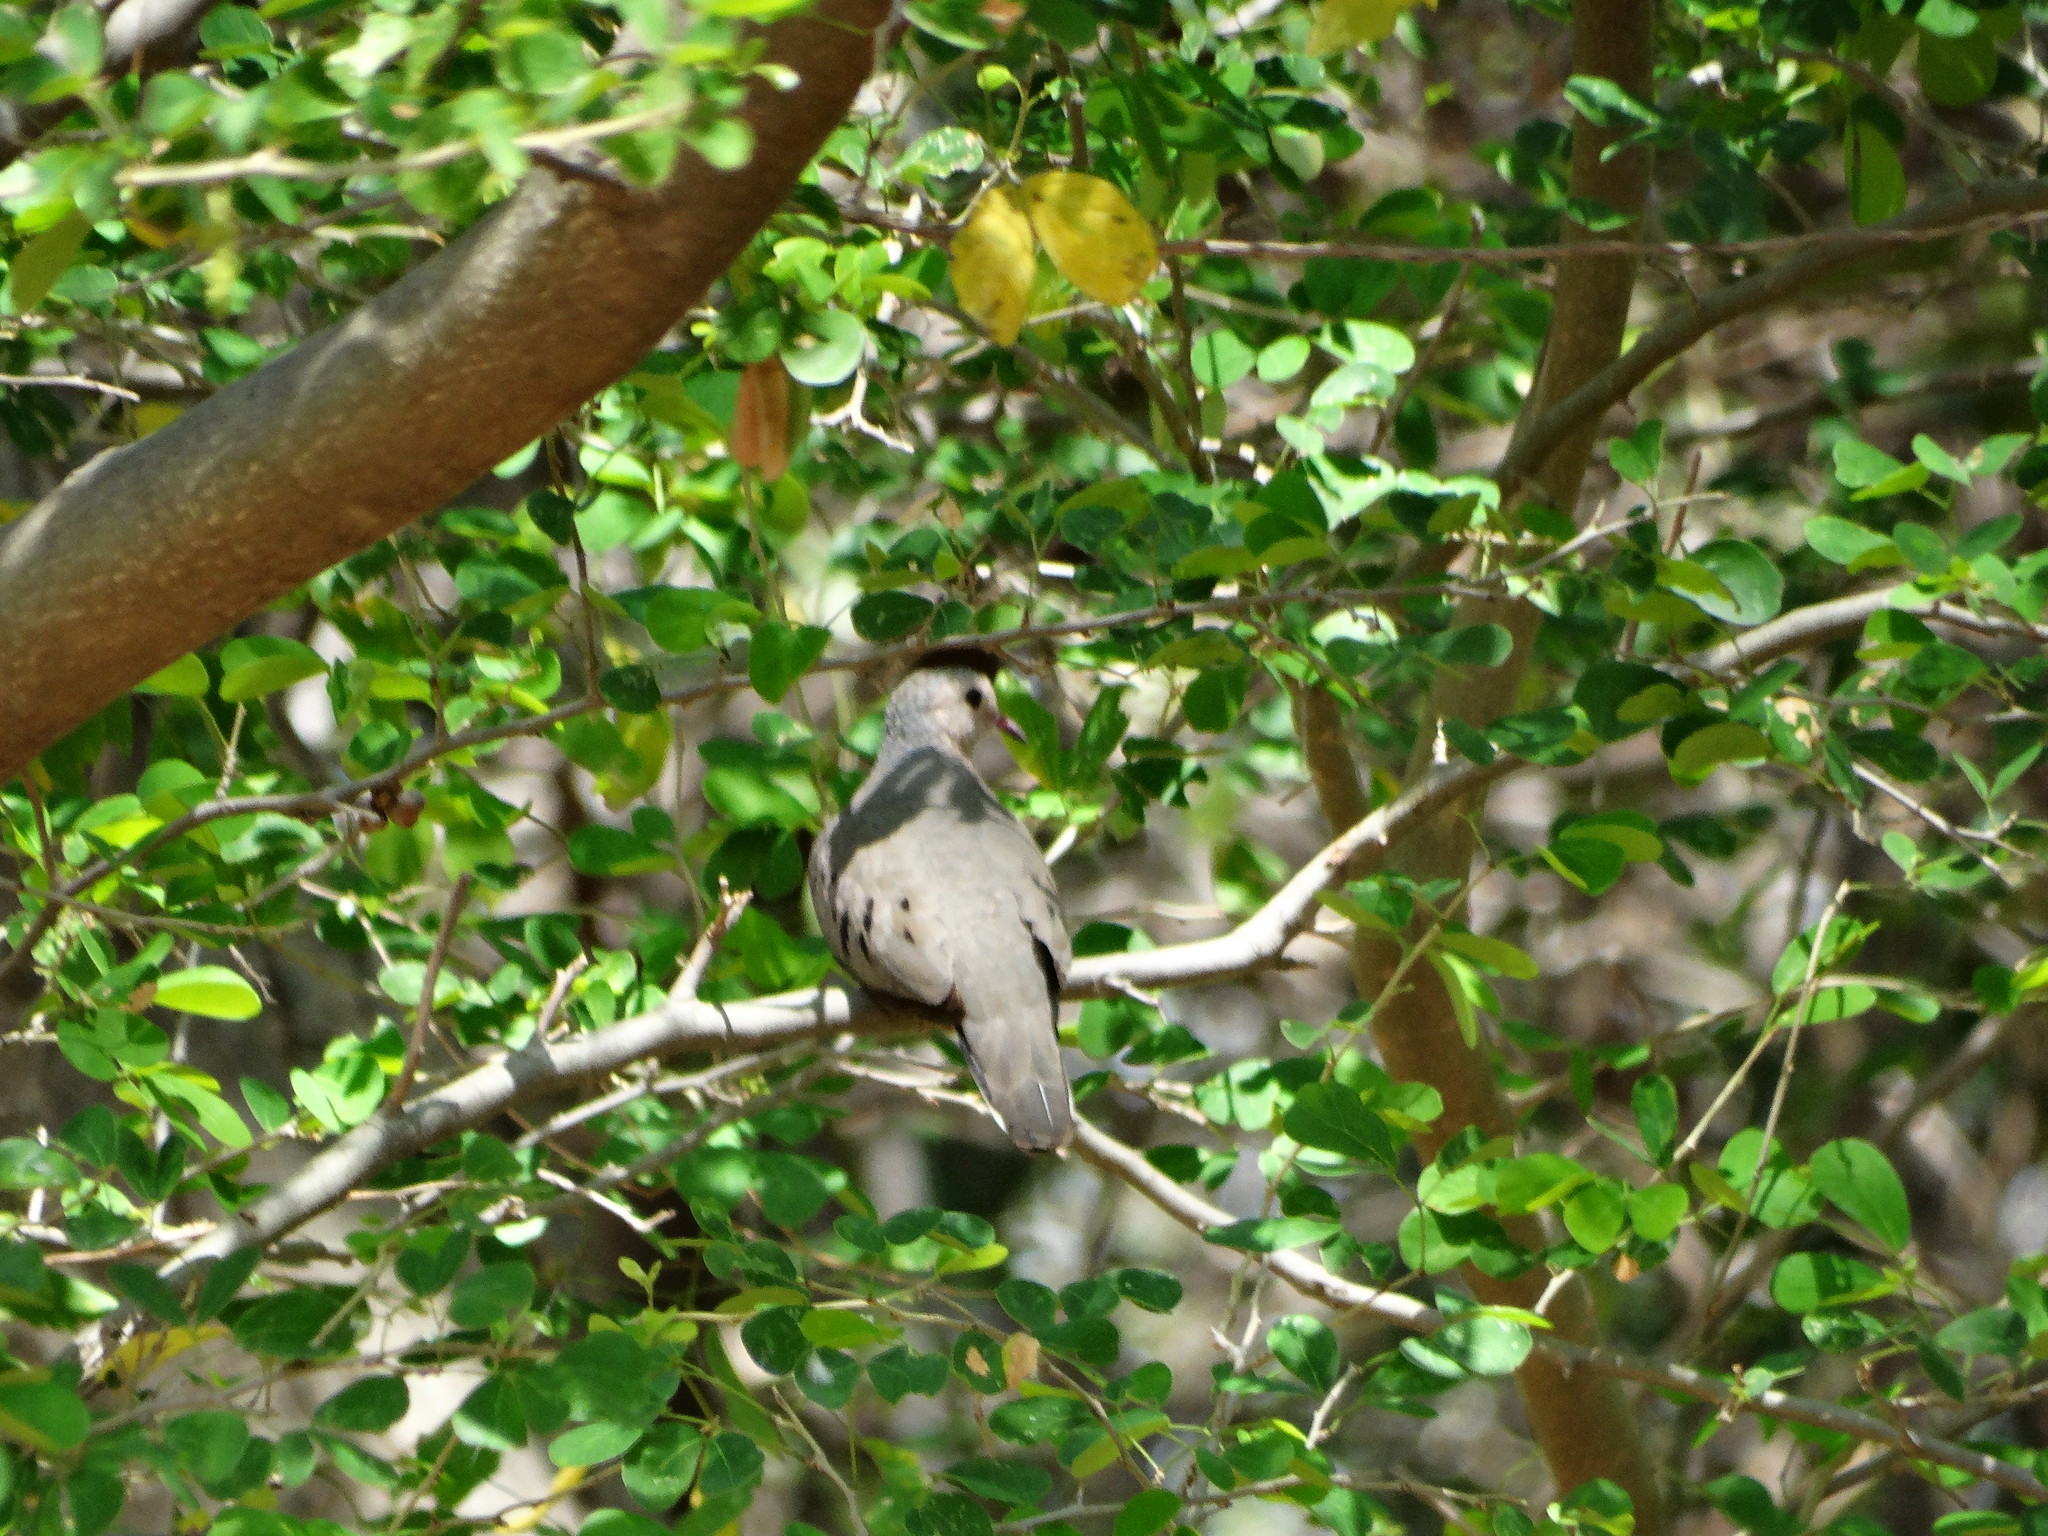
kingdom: Animalia
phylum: Chordata
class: Aves
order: Columbiformes
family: Columbidae
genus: Columbina
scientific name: Columbina passerina
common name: Common ground-dove
